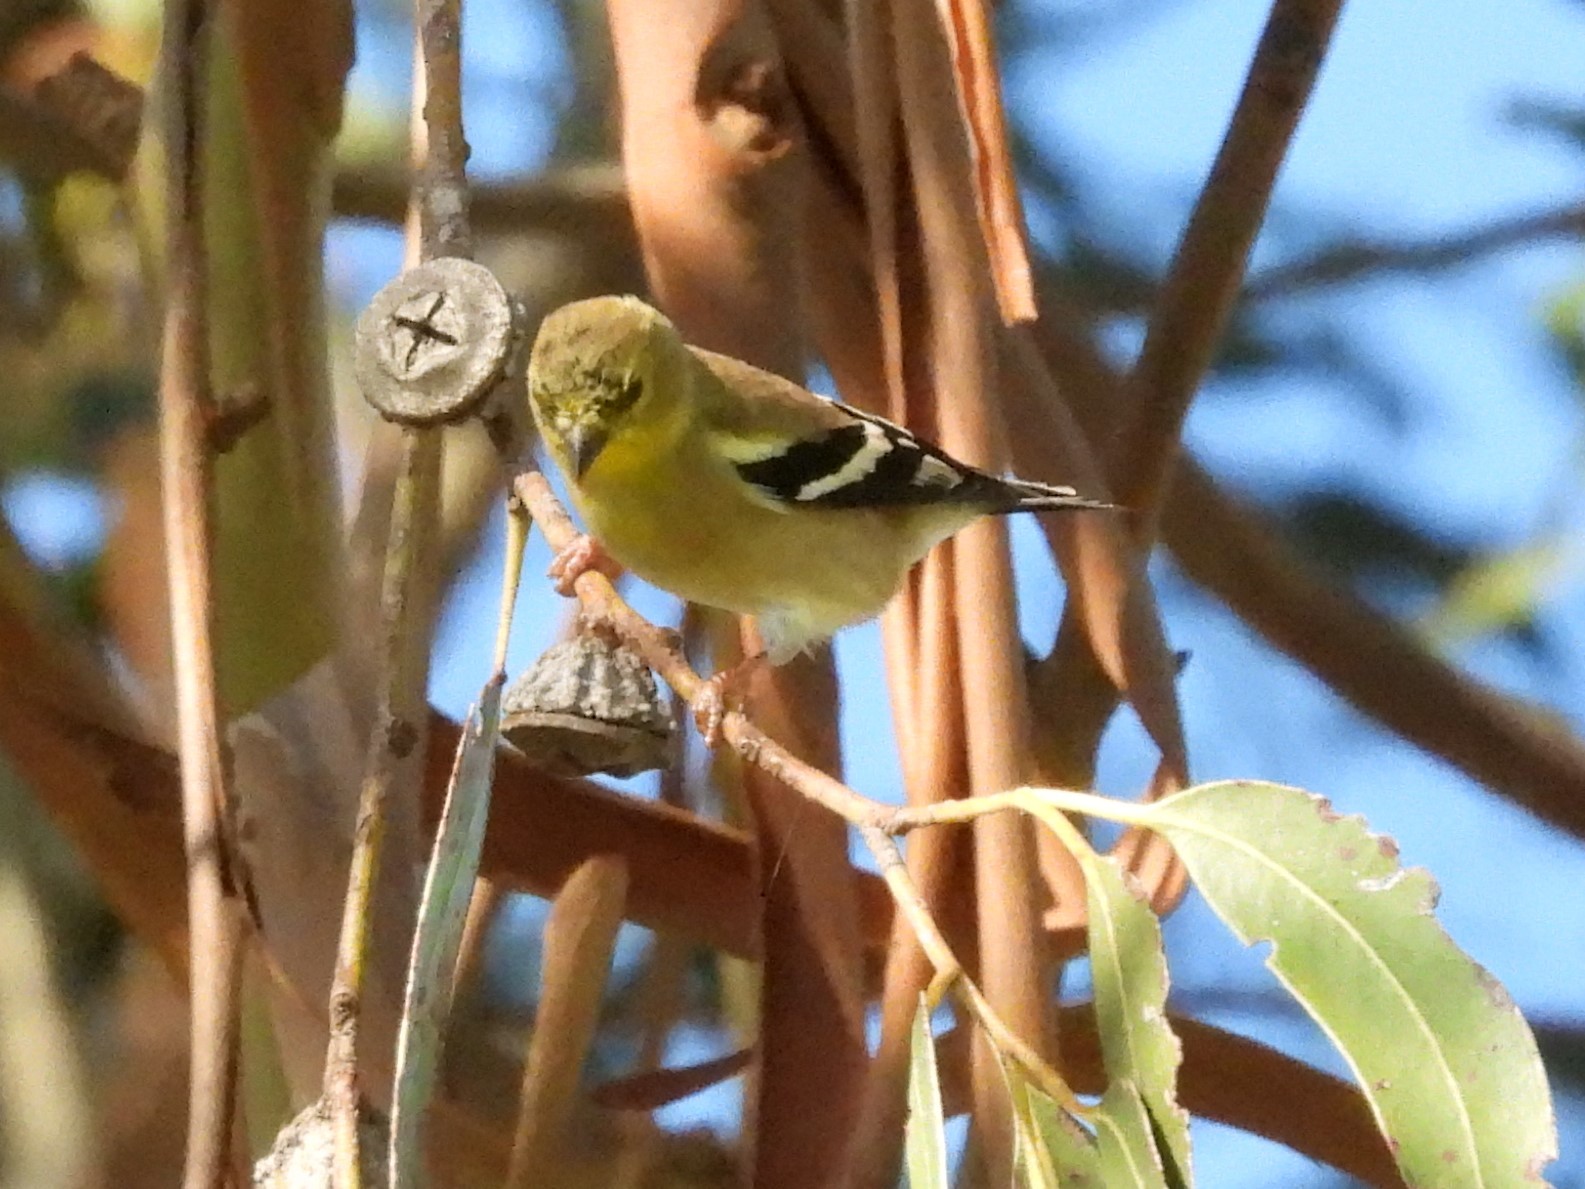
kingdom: Animalia
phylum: Chordata
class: Aves
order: Passeriformes
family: Fringillidae
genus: Spinus
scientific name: Spinus tristis
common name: American goldfinch
